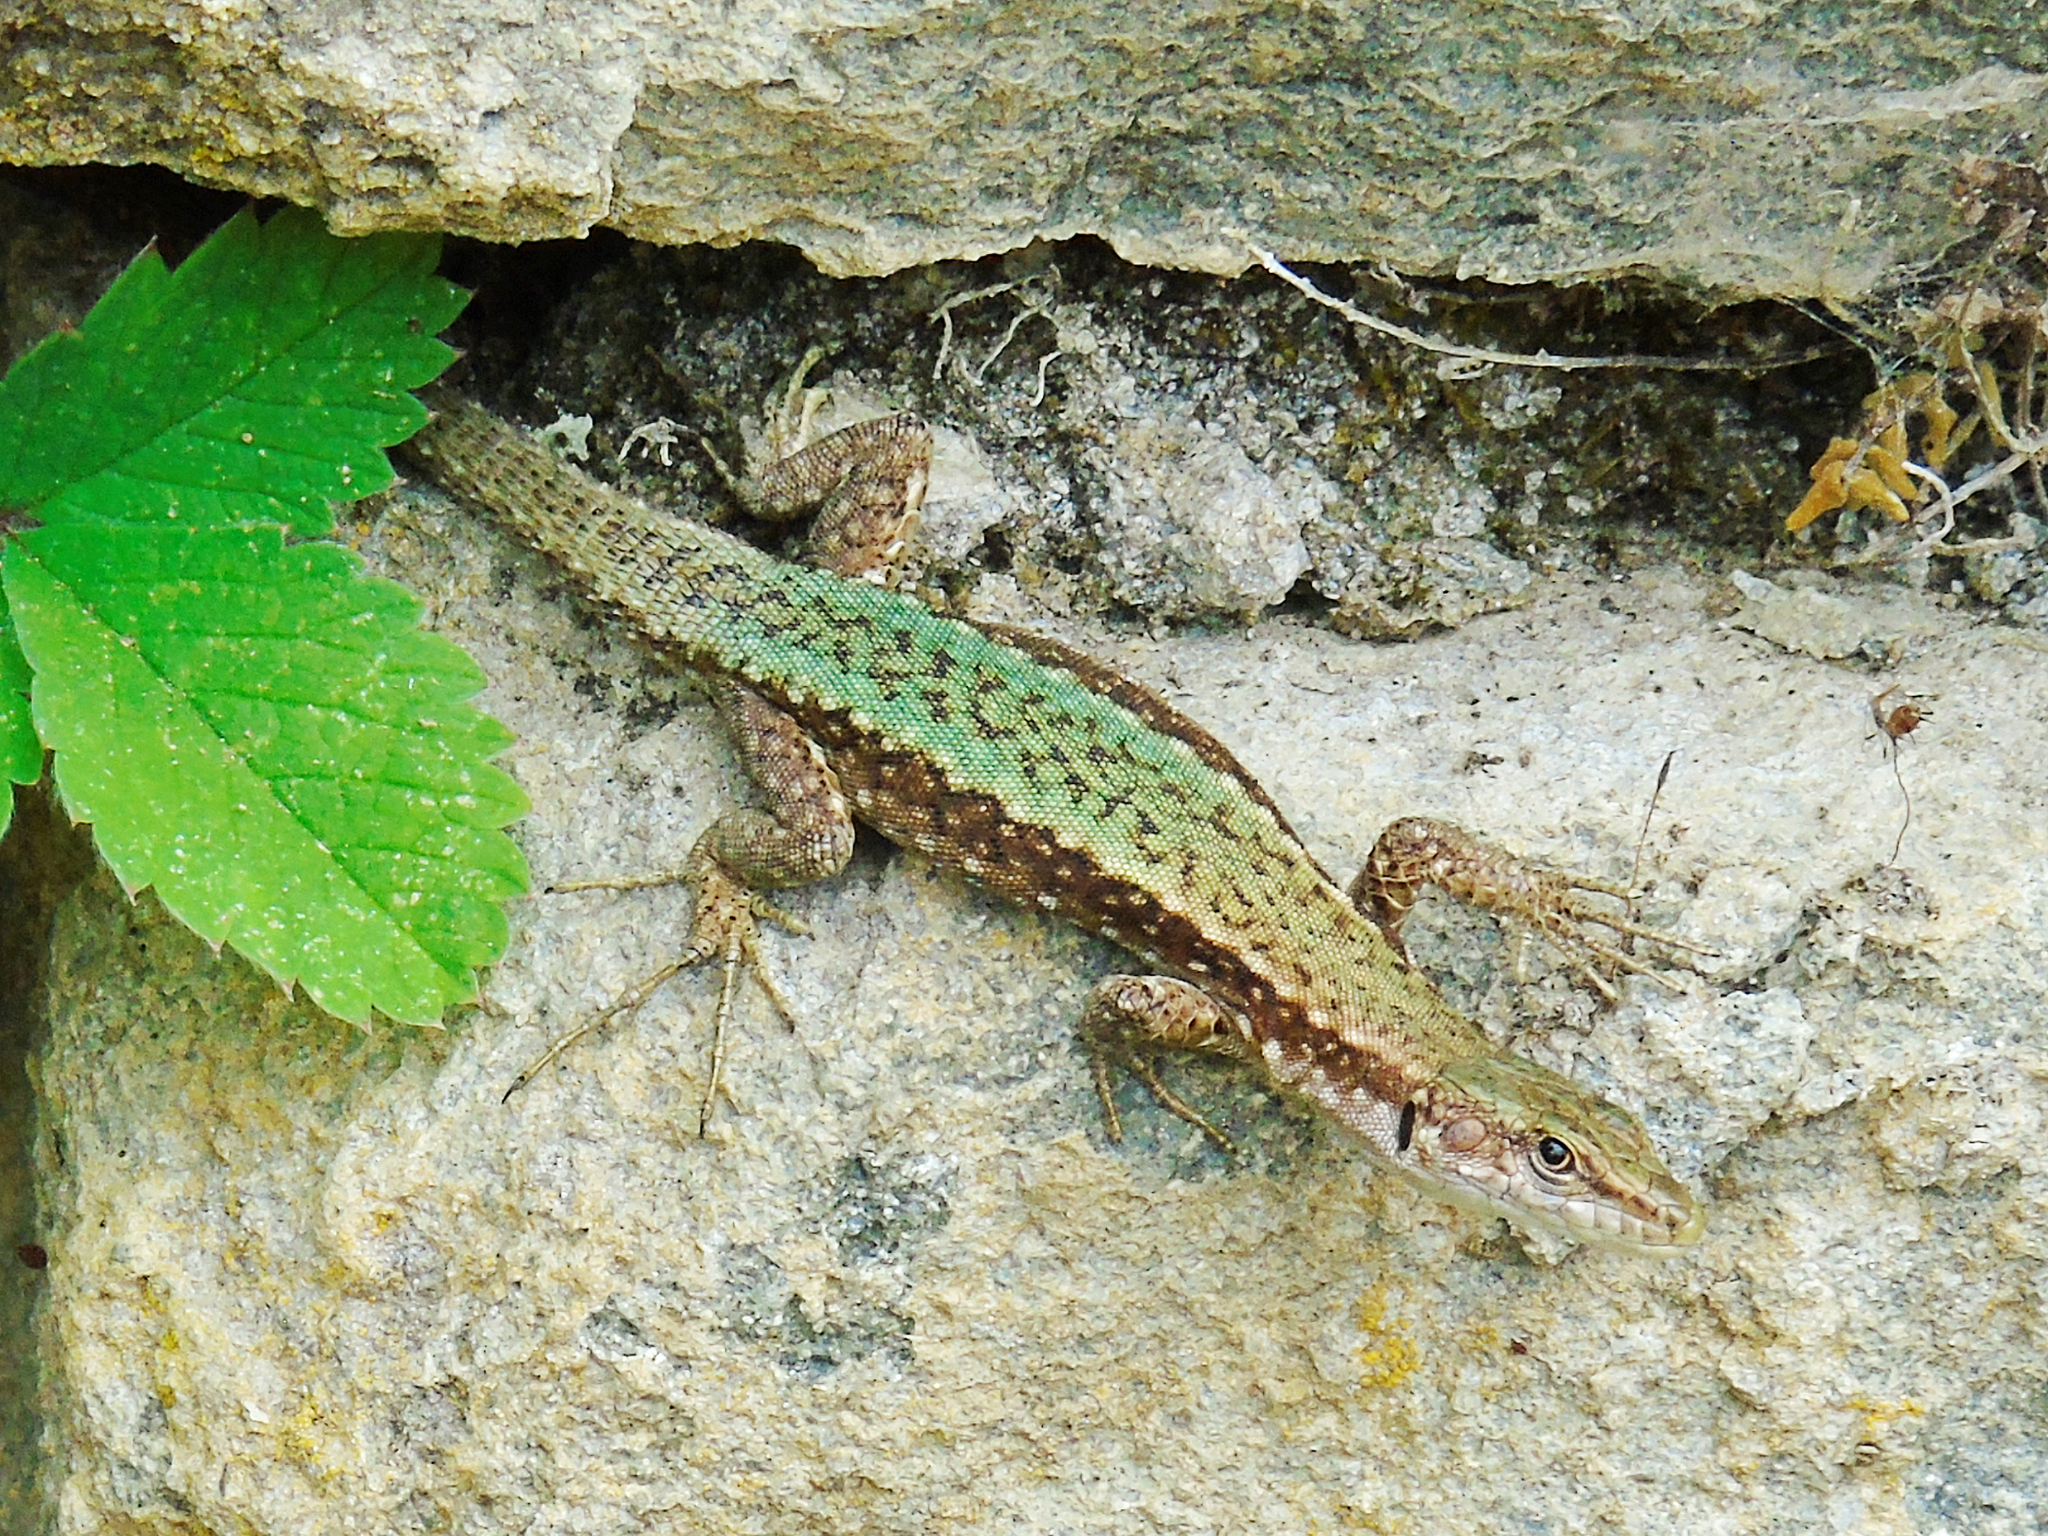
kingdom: Animalia
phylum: Chordata
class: Squamata
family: Lacertidae
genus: Darevskia
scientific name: Darevskia
